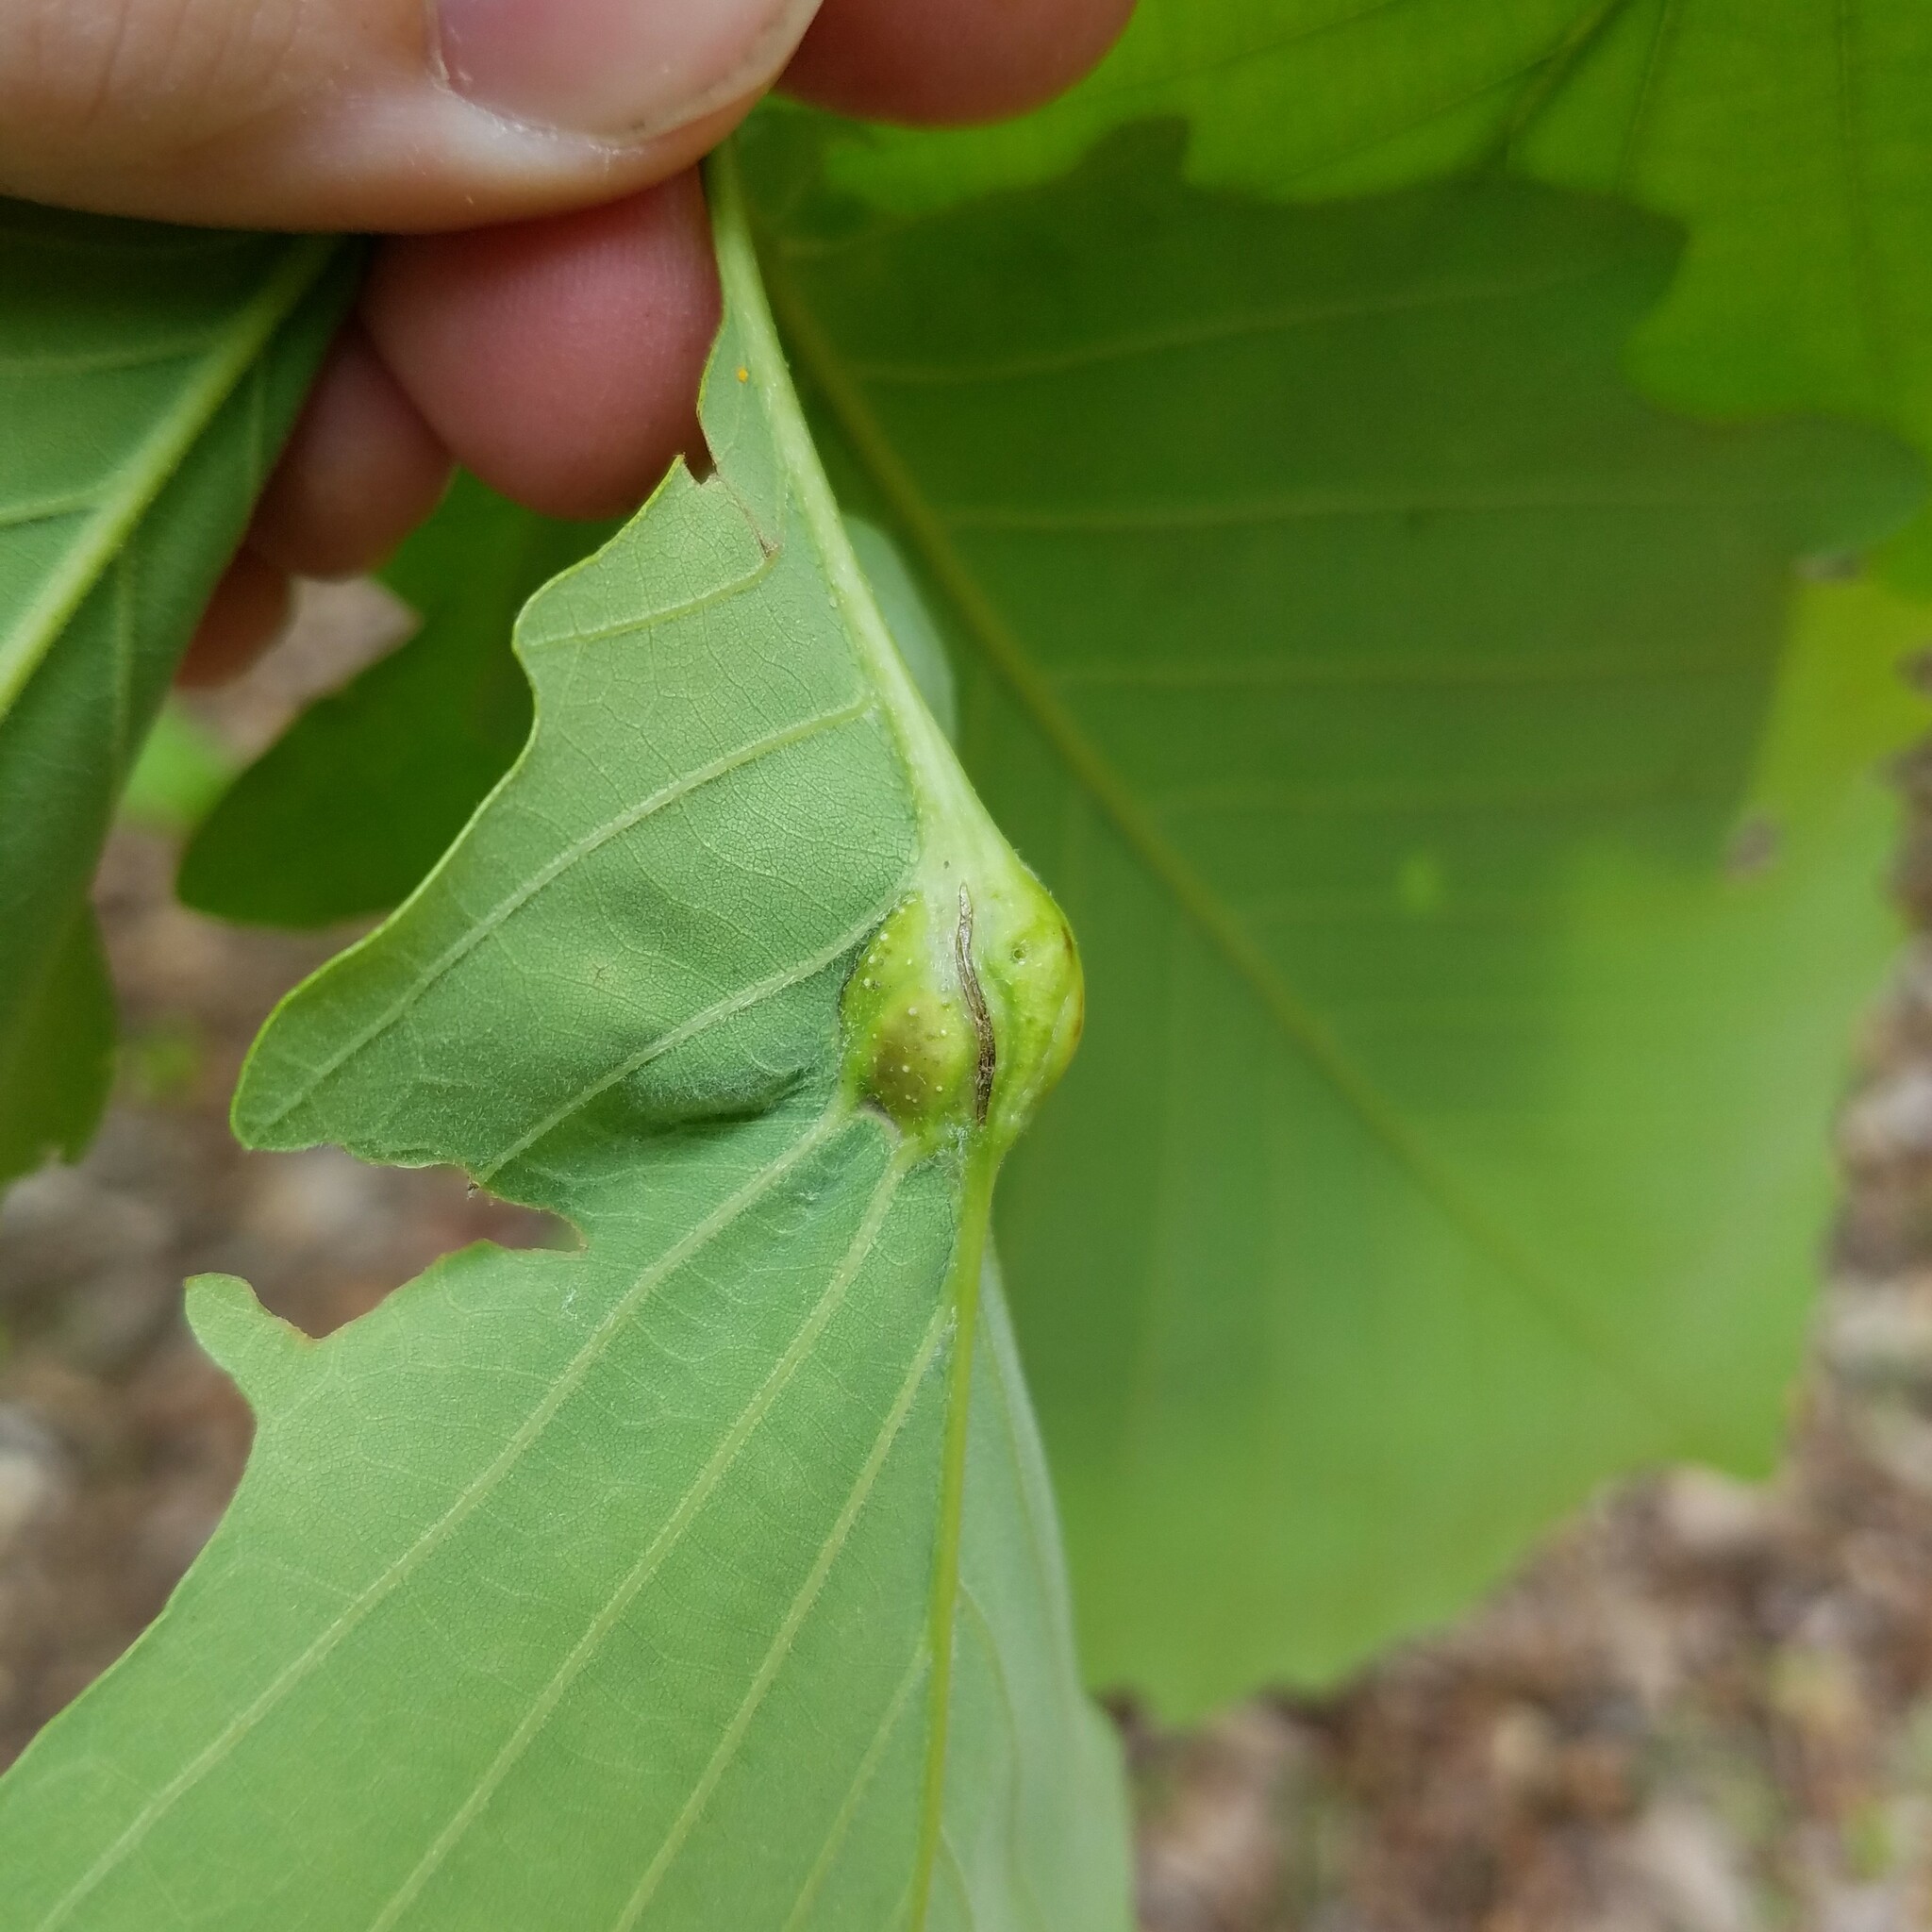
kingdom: Animalia
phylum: Arthropoda
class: Insecta
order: Hymenoptera
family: Cynipidae
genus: Andricus
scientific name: Andricus
